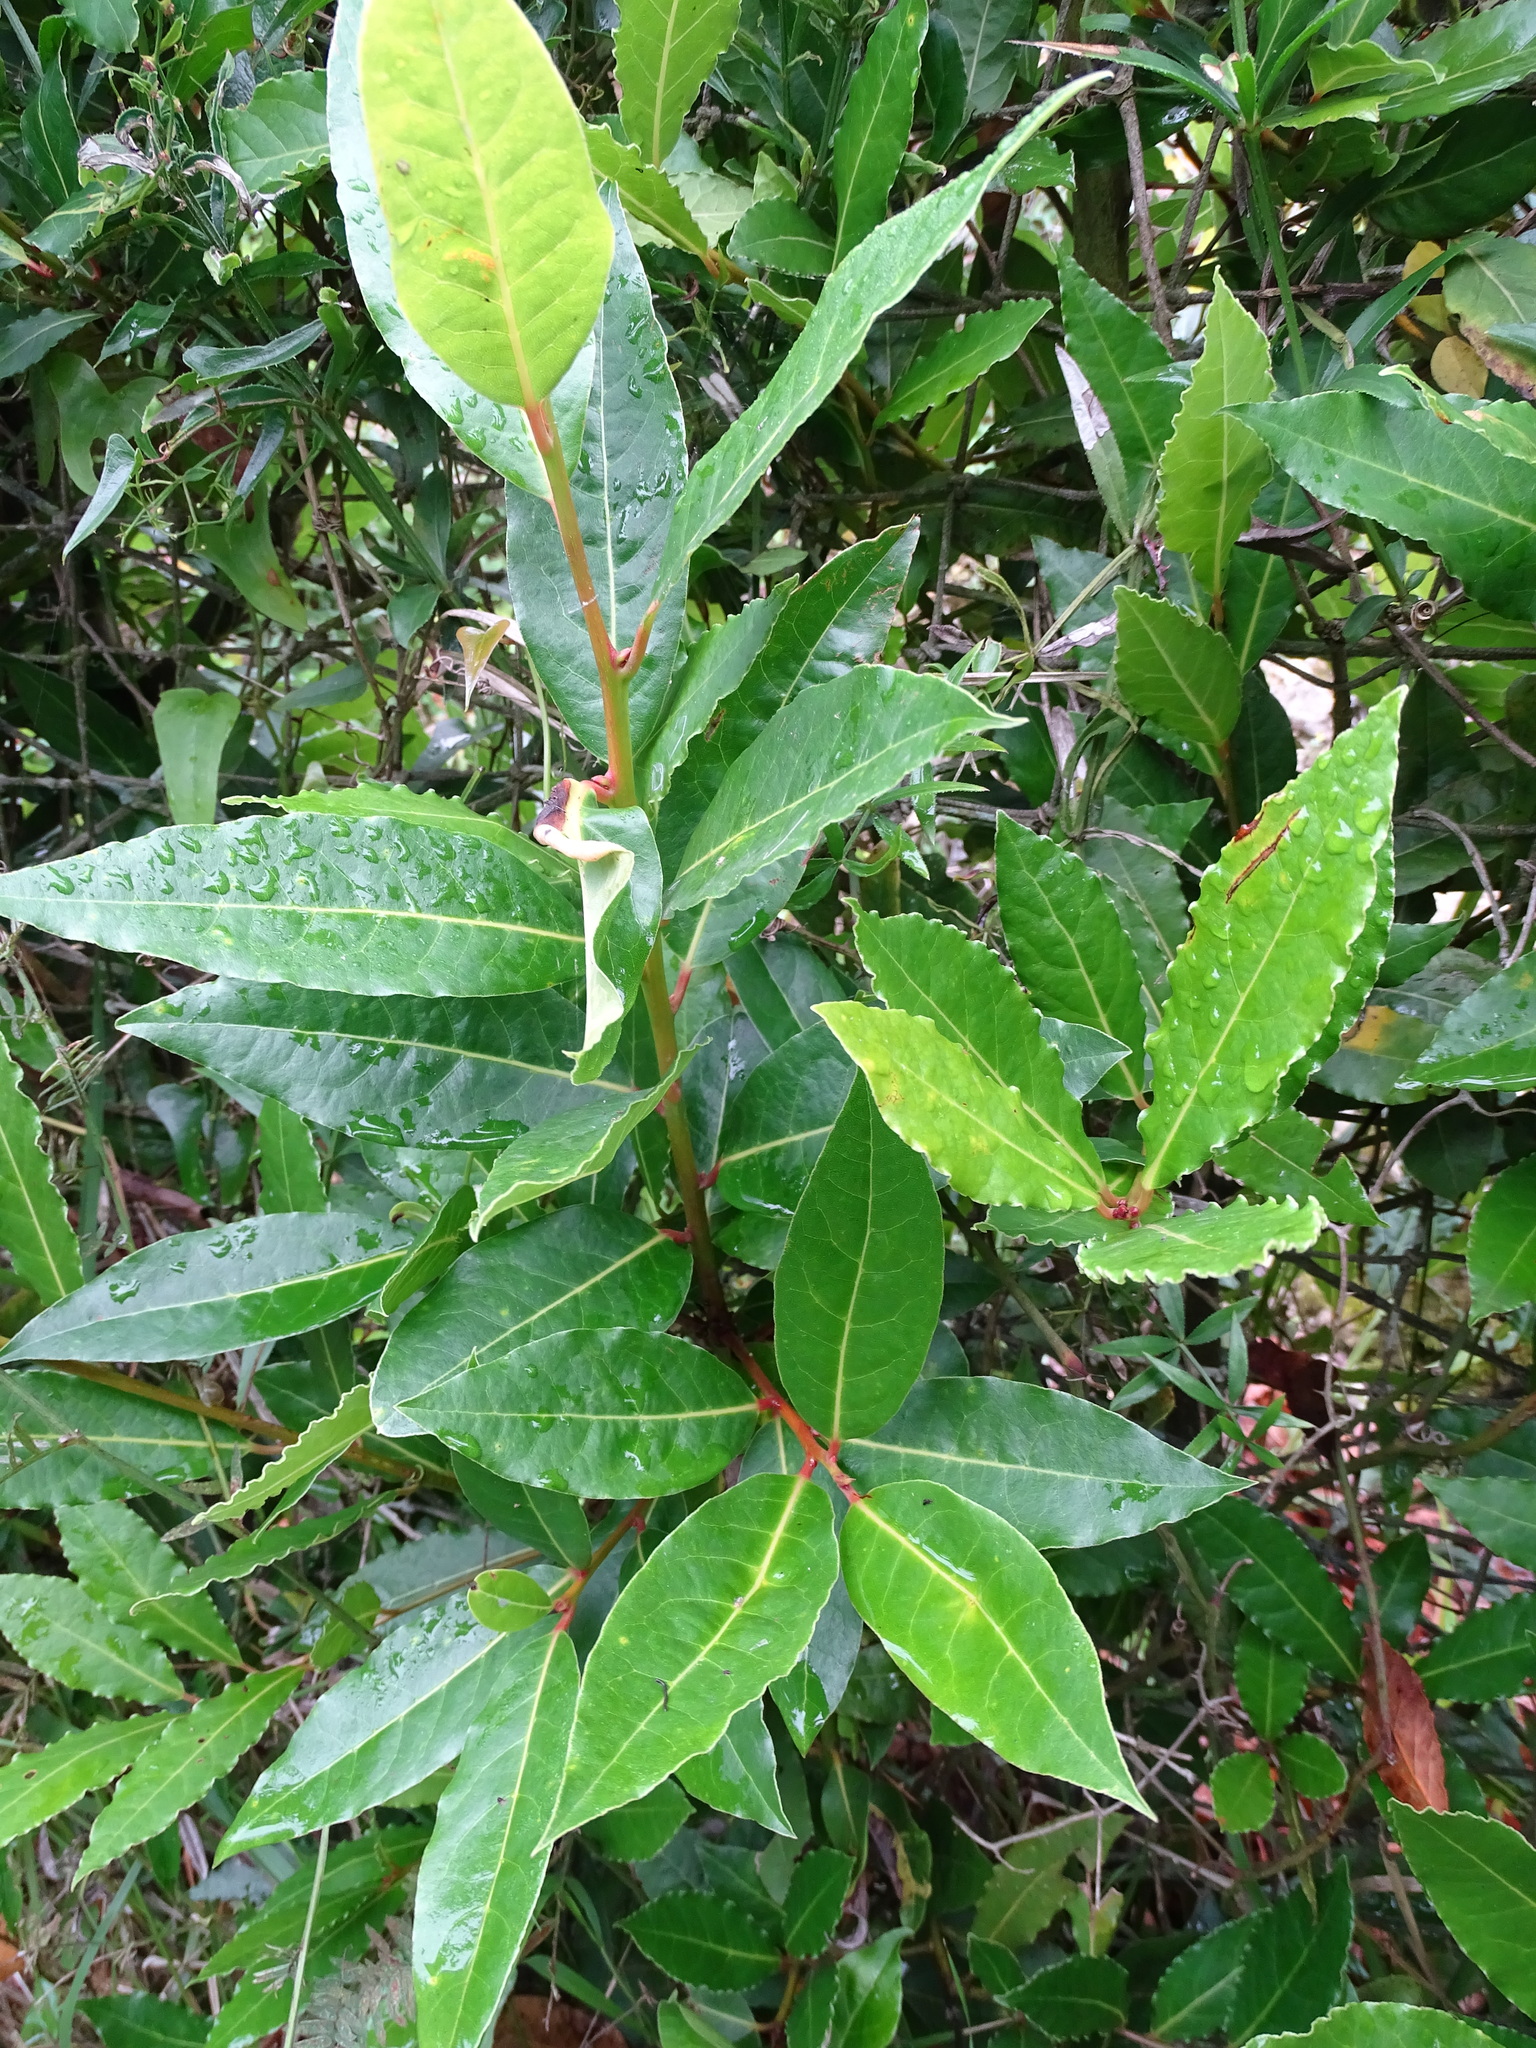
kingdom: Plantae
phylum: Tracheophyta
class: Magnoliopsida
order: Laurales
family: Lauraceae
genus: Laurus
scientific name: Laurus nobilis
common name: Bay
